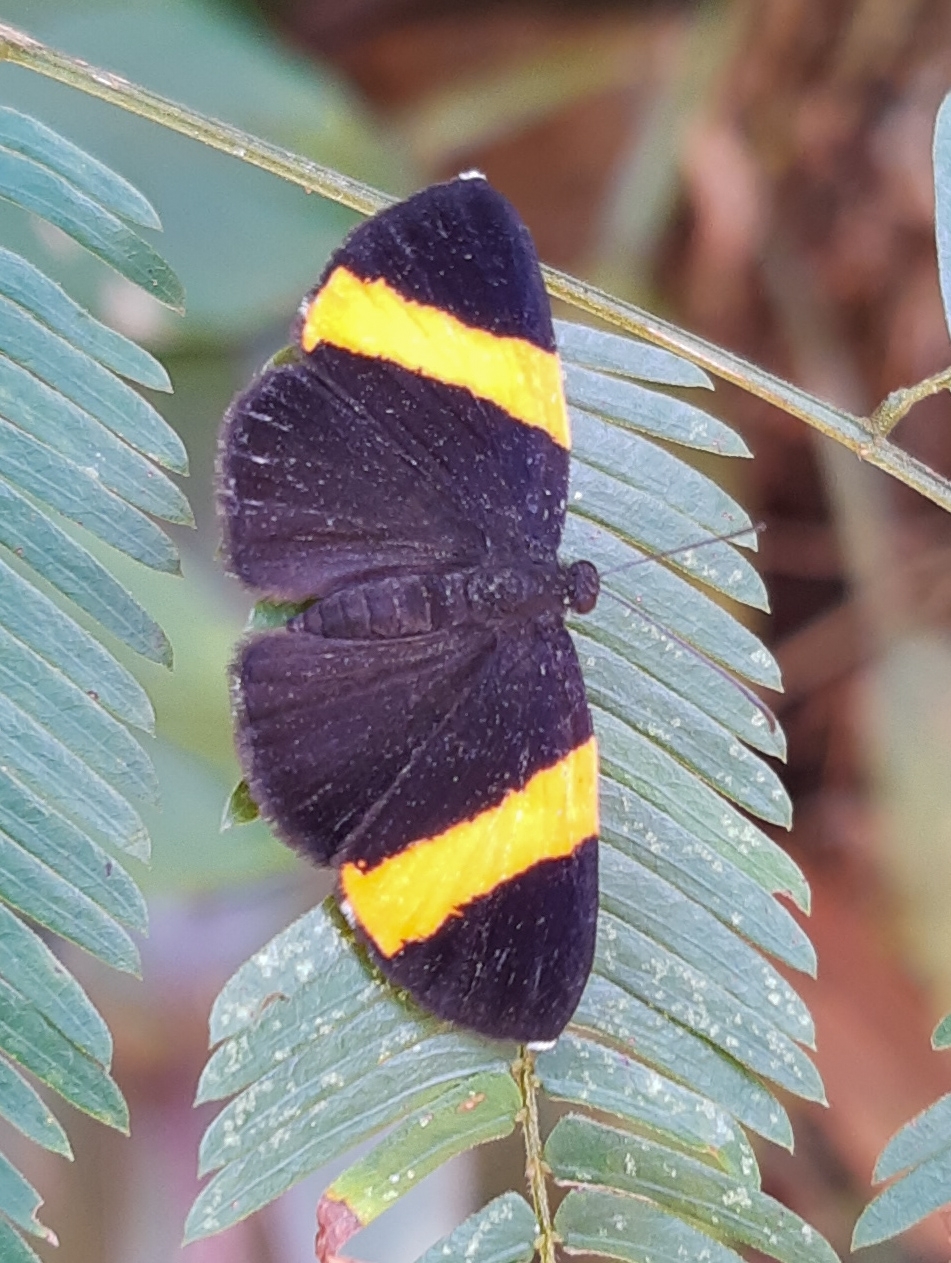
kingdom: Animalia
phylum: Arthropoda
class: Insecta
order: Lepidoptera
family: Riodinidae
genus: Pirascca
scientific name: Pirascca sagaris
